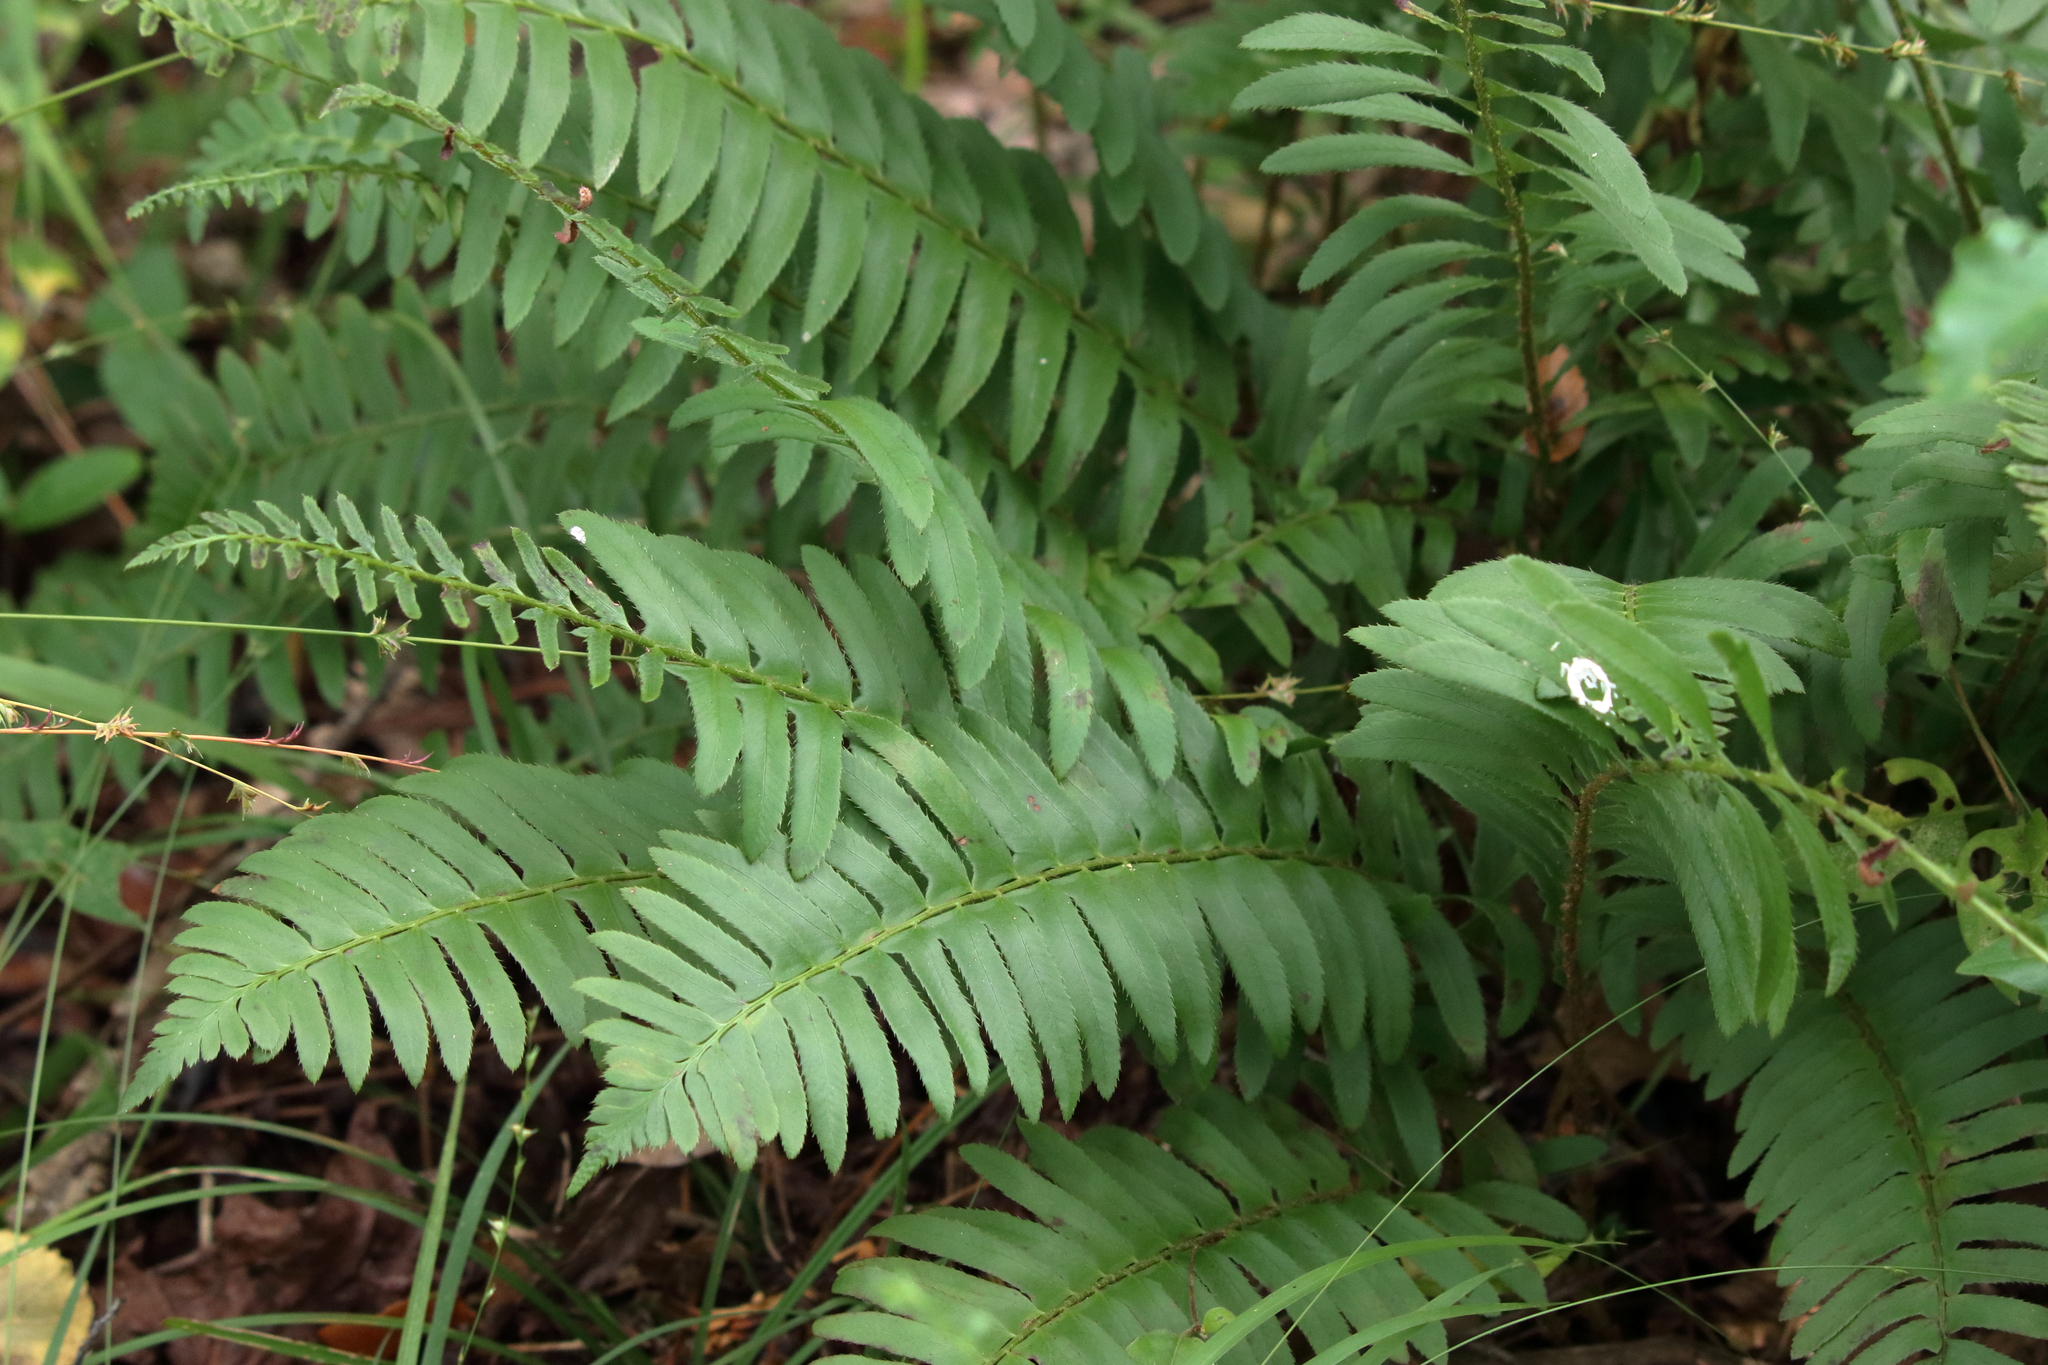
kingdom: Plantae
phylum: Tracheophyta
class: Polypodiopsida
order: Polypodiales
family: Dryopteridaceae
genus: Polystichum
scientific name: Polystichum acrostichoides
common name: Christmas fern
